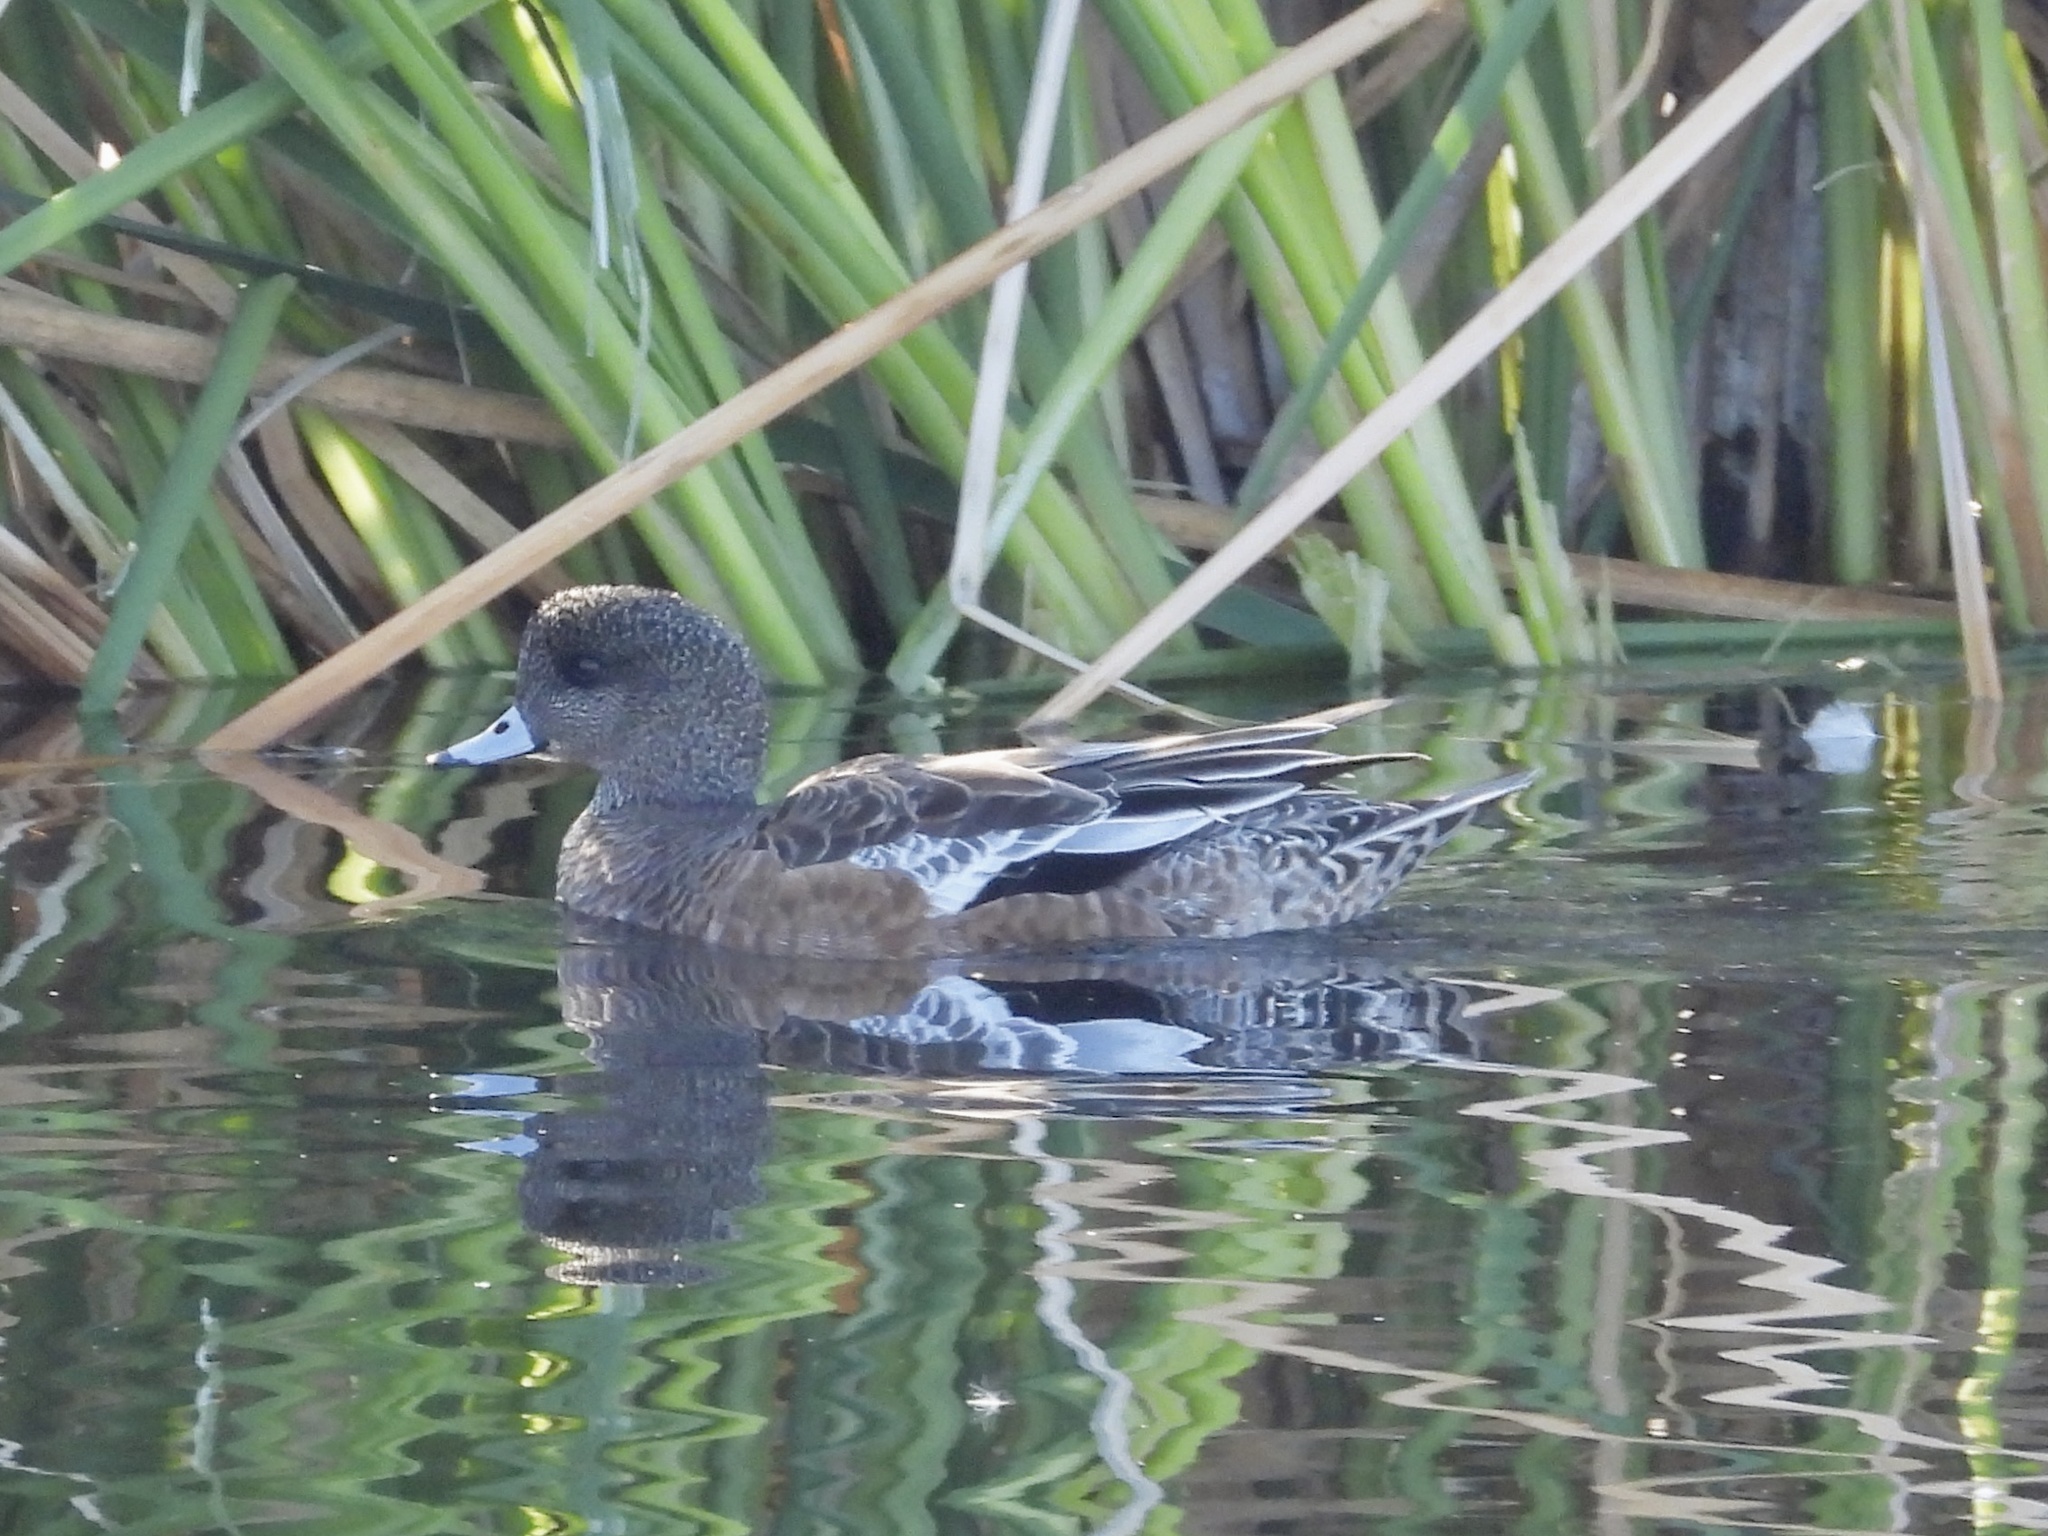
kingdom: Animalia
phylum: Chordata
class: Aves
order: Anseriformes
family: Anatidae
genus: Mareca
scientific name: Mareca americana
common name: American wigeon
